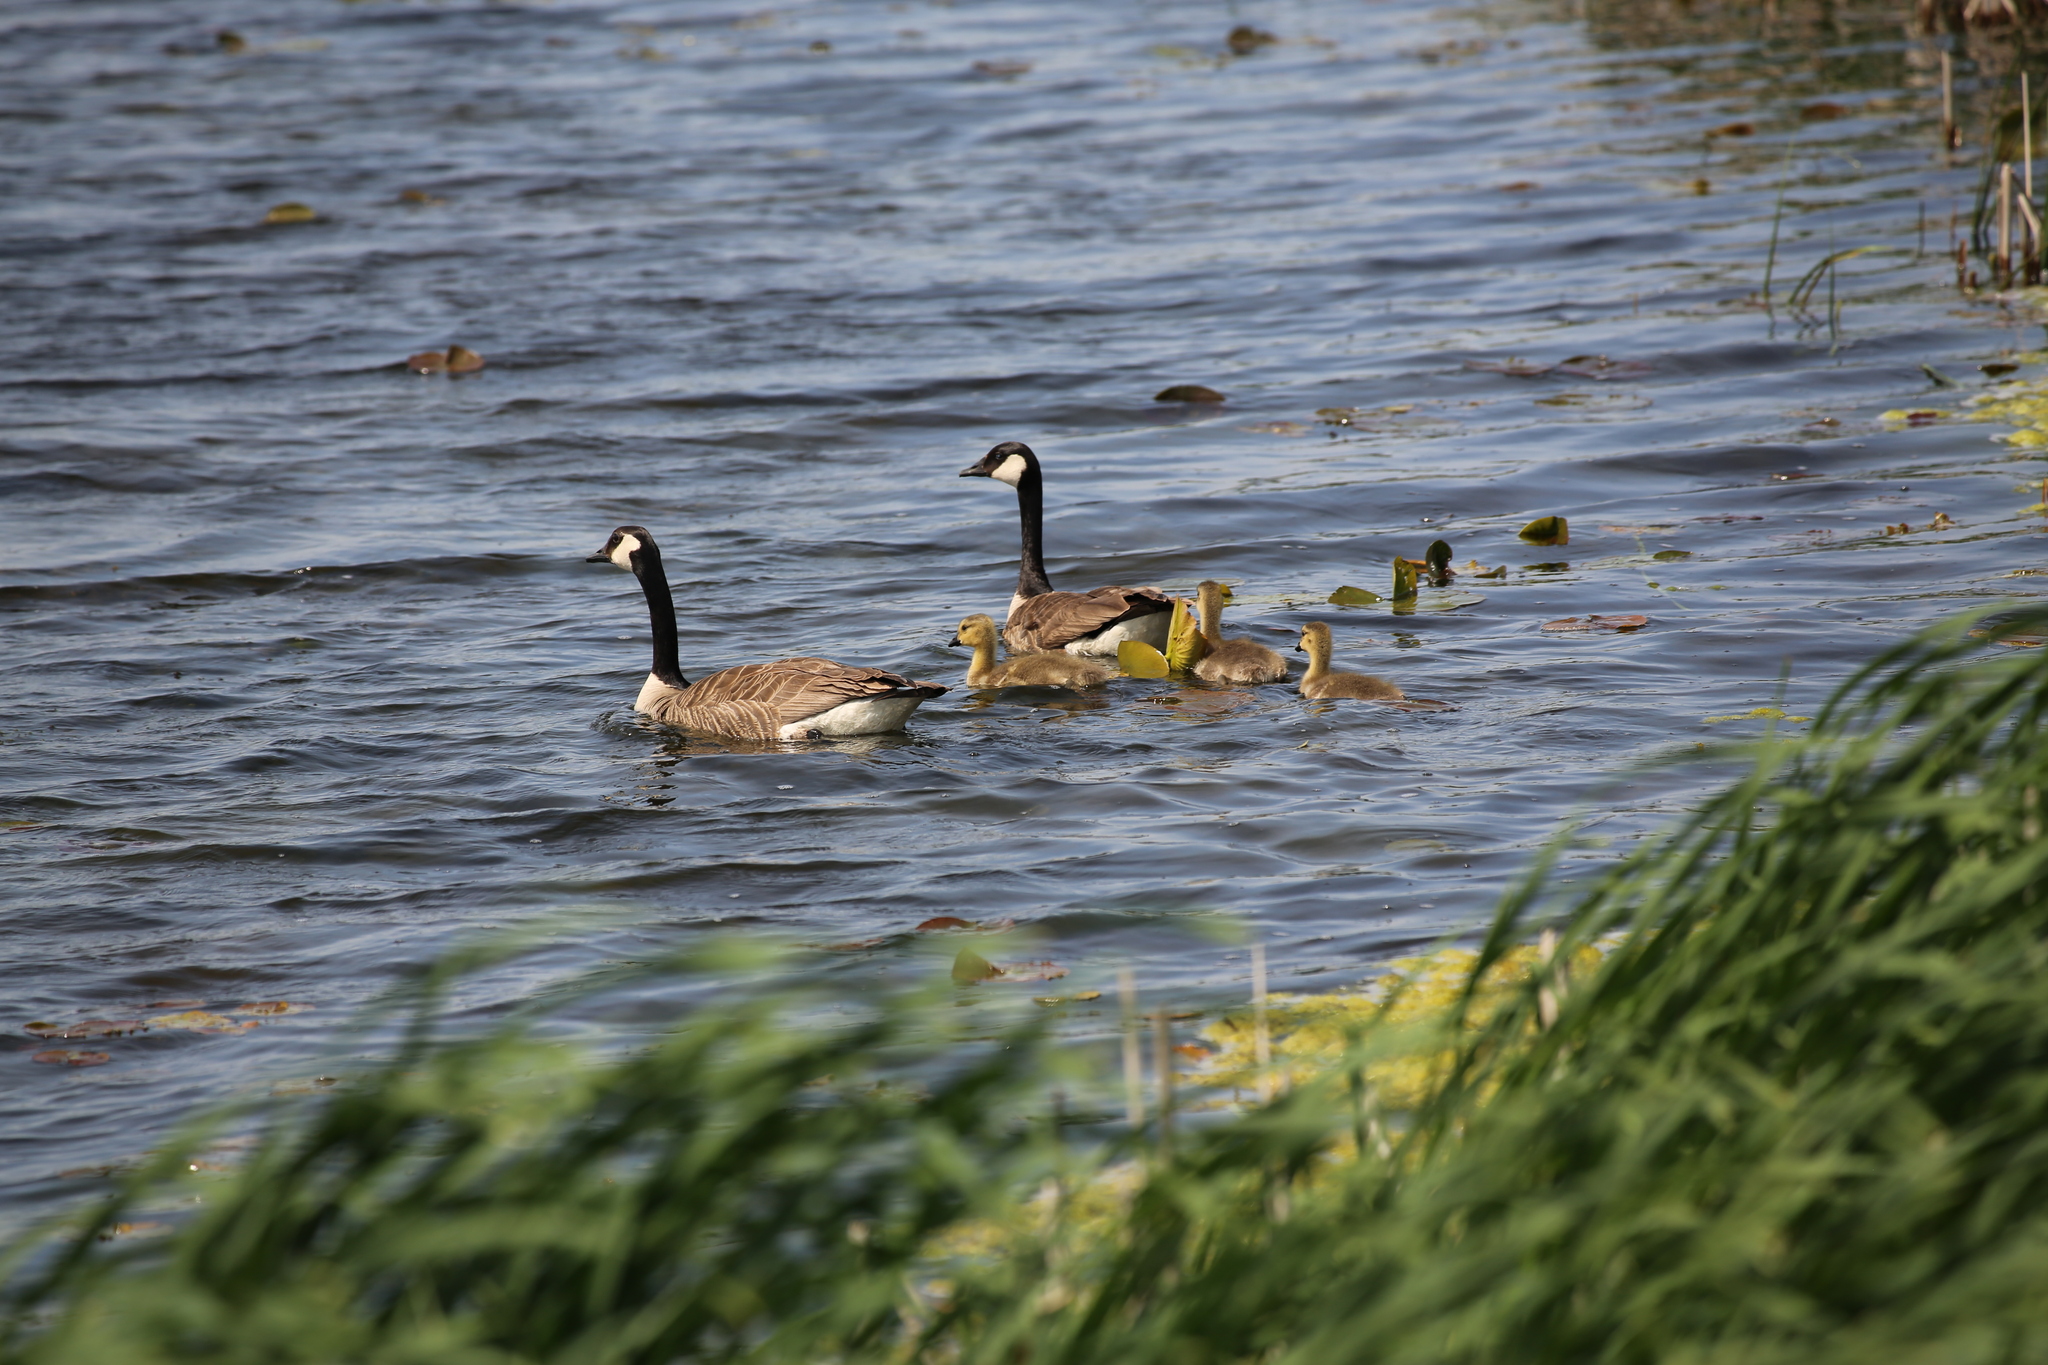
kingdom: Animalia
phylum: Chordata
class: Aves
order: Anseriformes
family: Anatidae
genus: Branta
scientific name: Branta canadensis
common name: Canada goose
